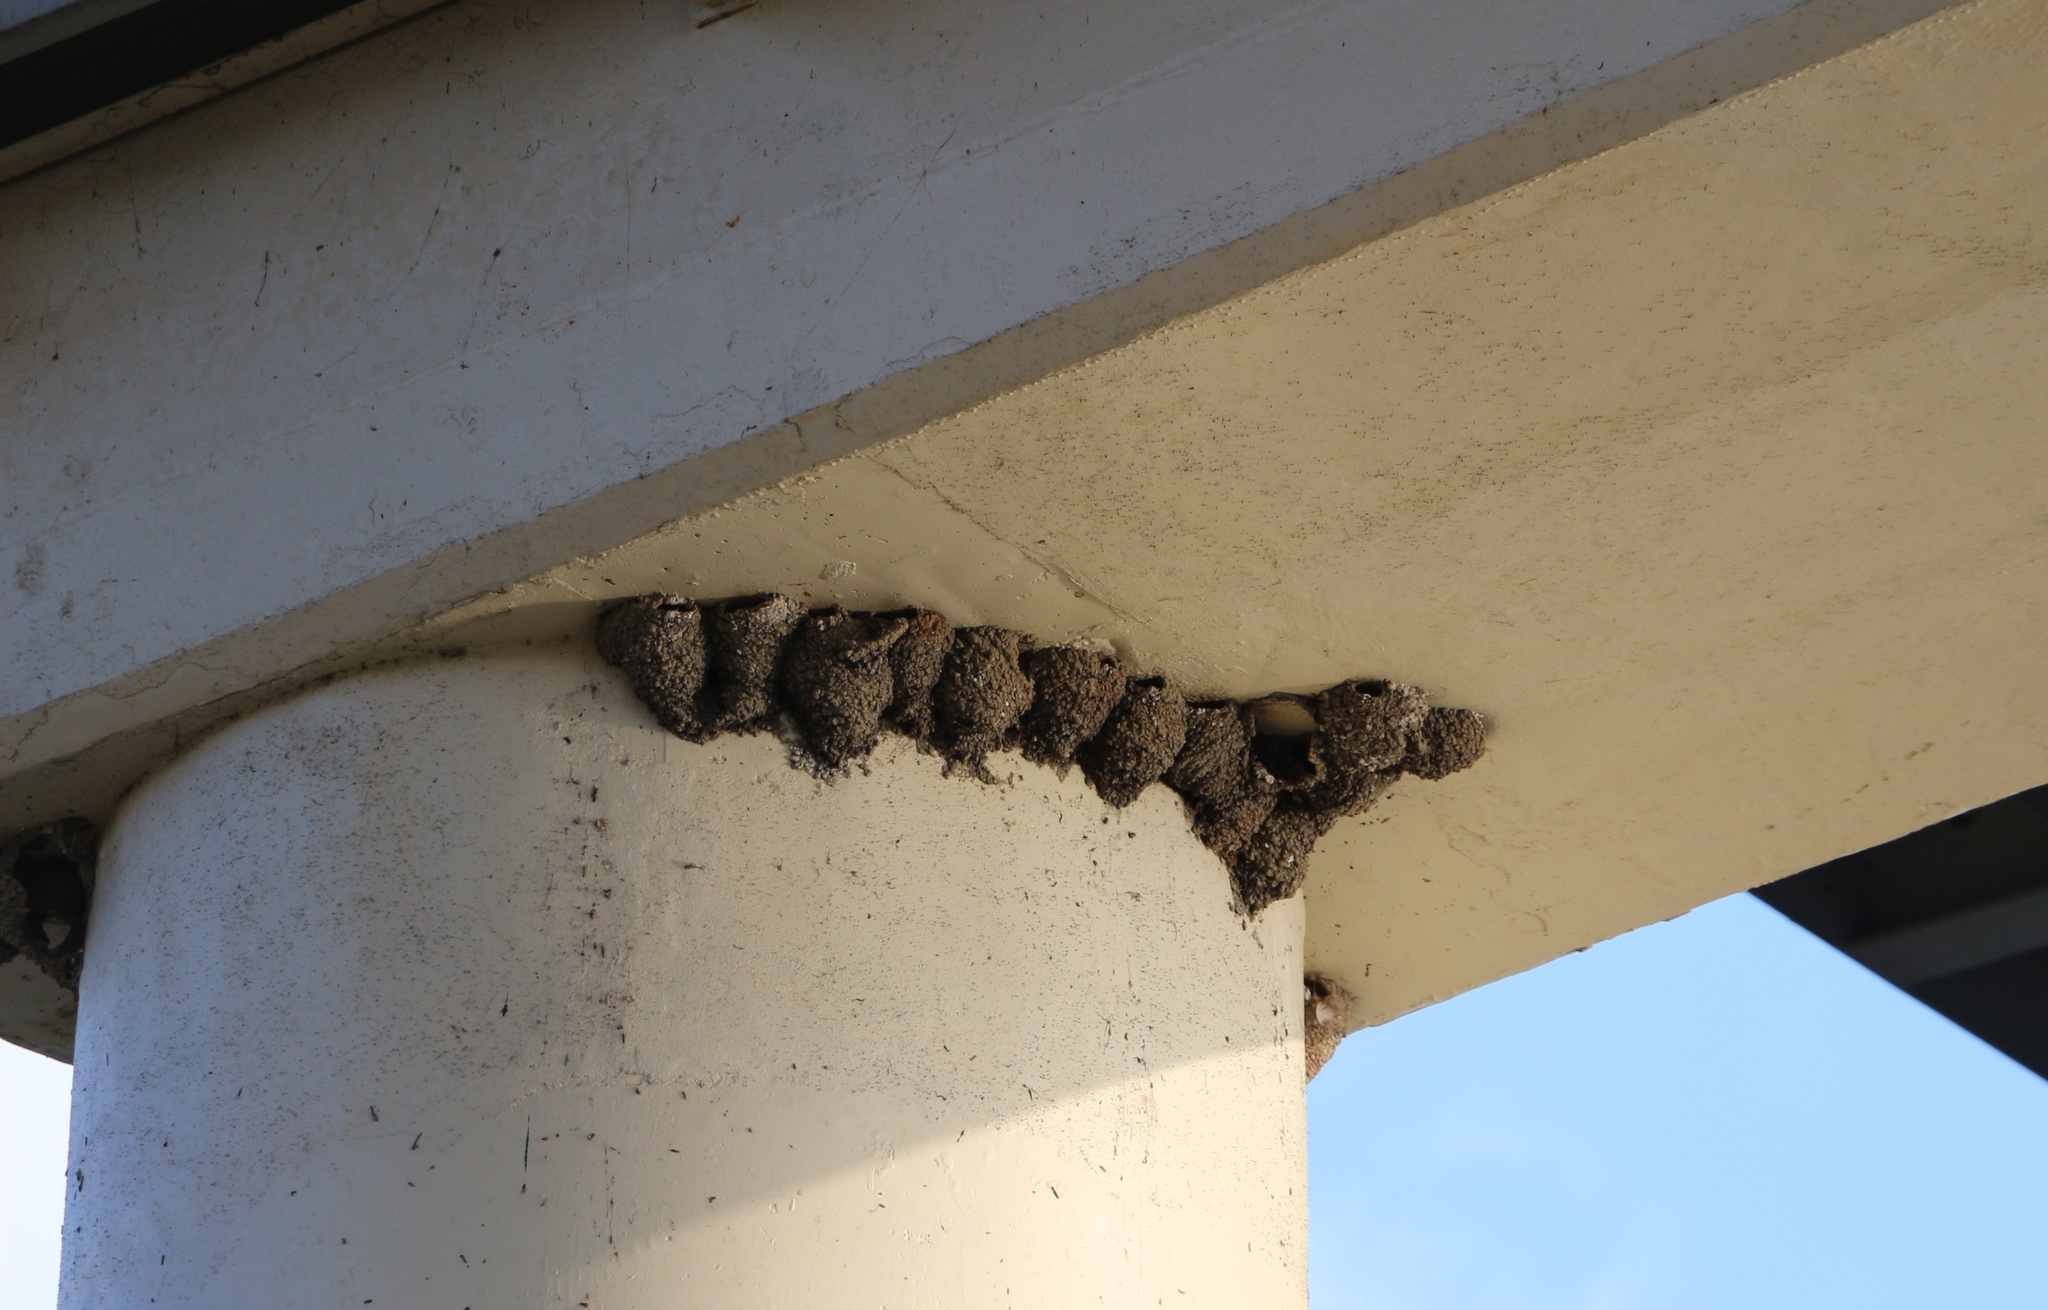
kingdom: Animalia
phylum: Chordata
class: Aves
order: Passeriformes
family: Hirundinidae
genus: Delichon
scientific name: Delichon urbicum
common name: Common house martin
